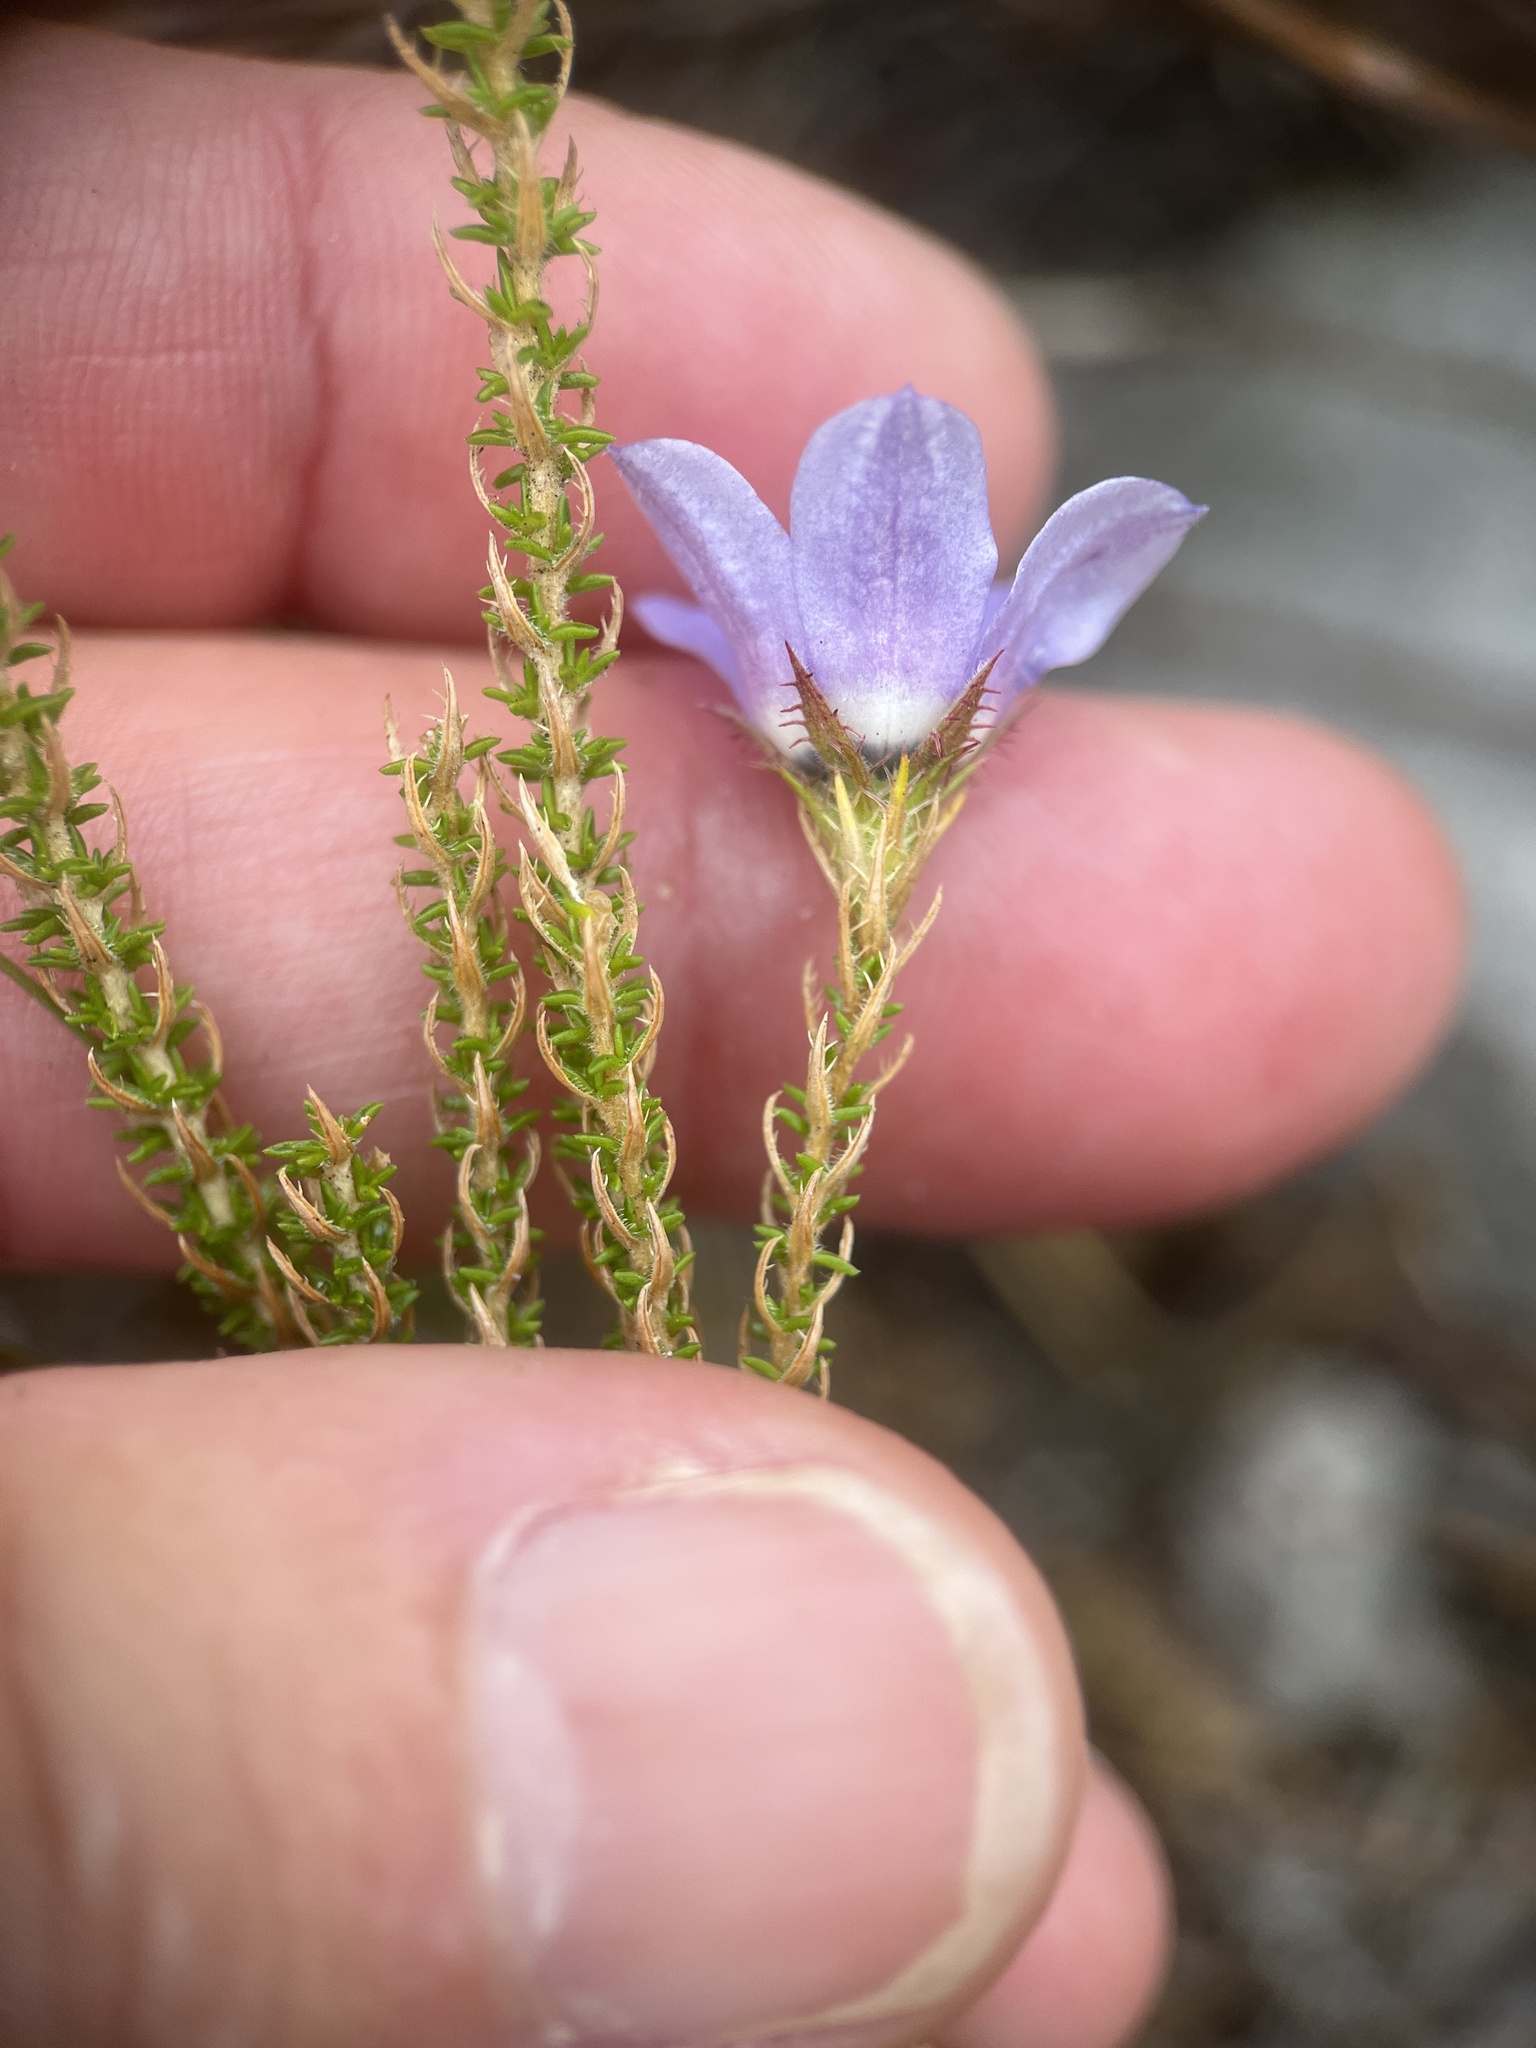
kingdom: Plantae
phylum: Tracheophyta
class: Magnoliopsida
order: Asterales
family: Campanulaceae
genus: Roella
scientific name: Roella triflora
